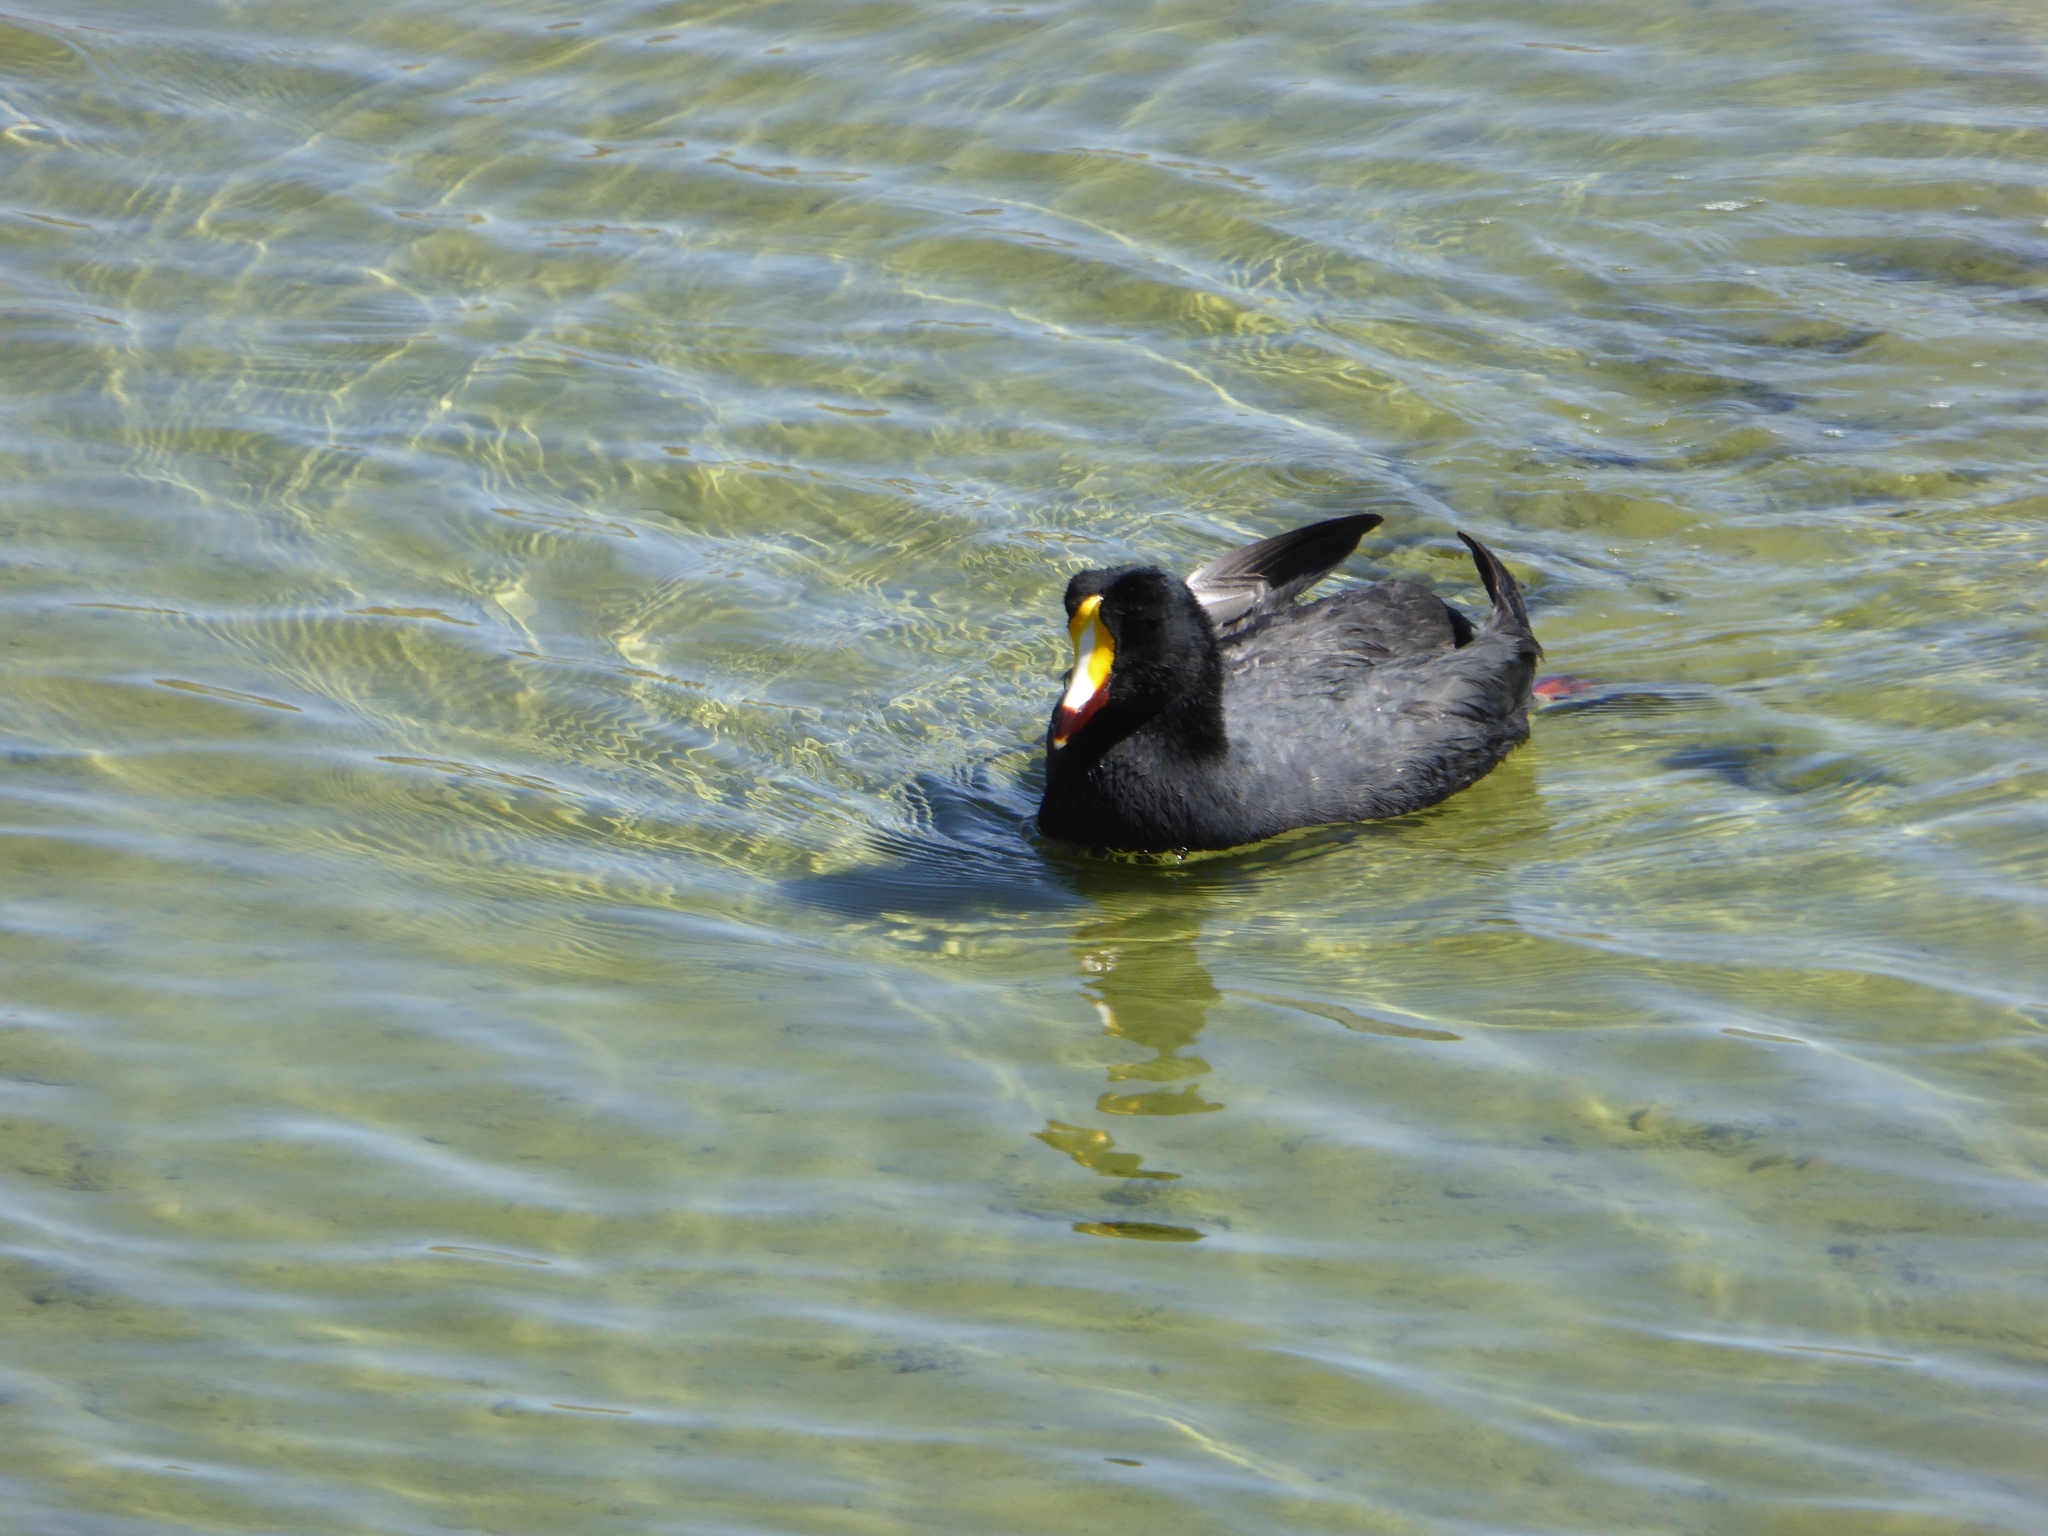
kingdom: Animalia
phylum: Chordata
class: Aves
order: Gruiformes
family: Rallidae
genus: Fulica
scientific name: Fulica gigantea
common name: Giant coot
